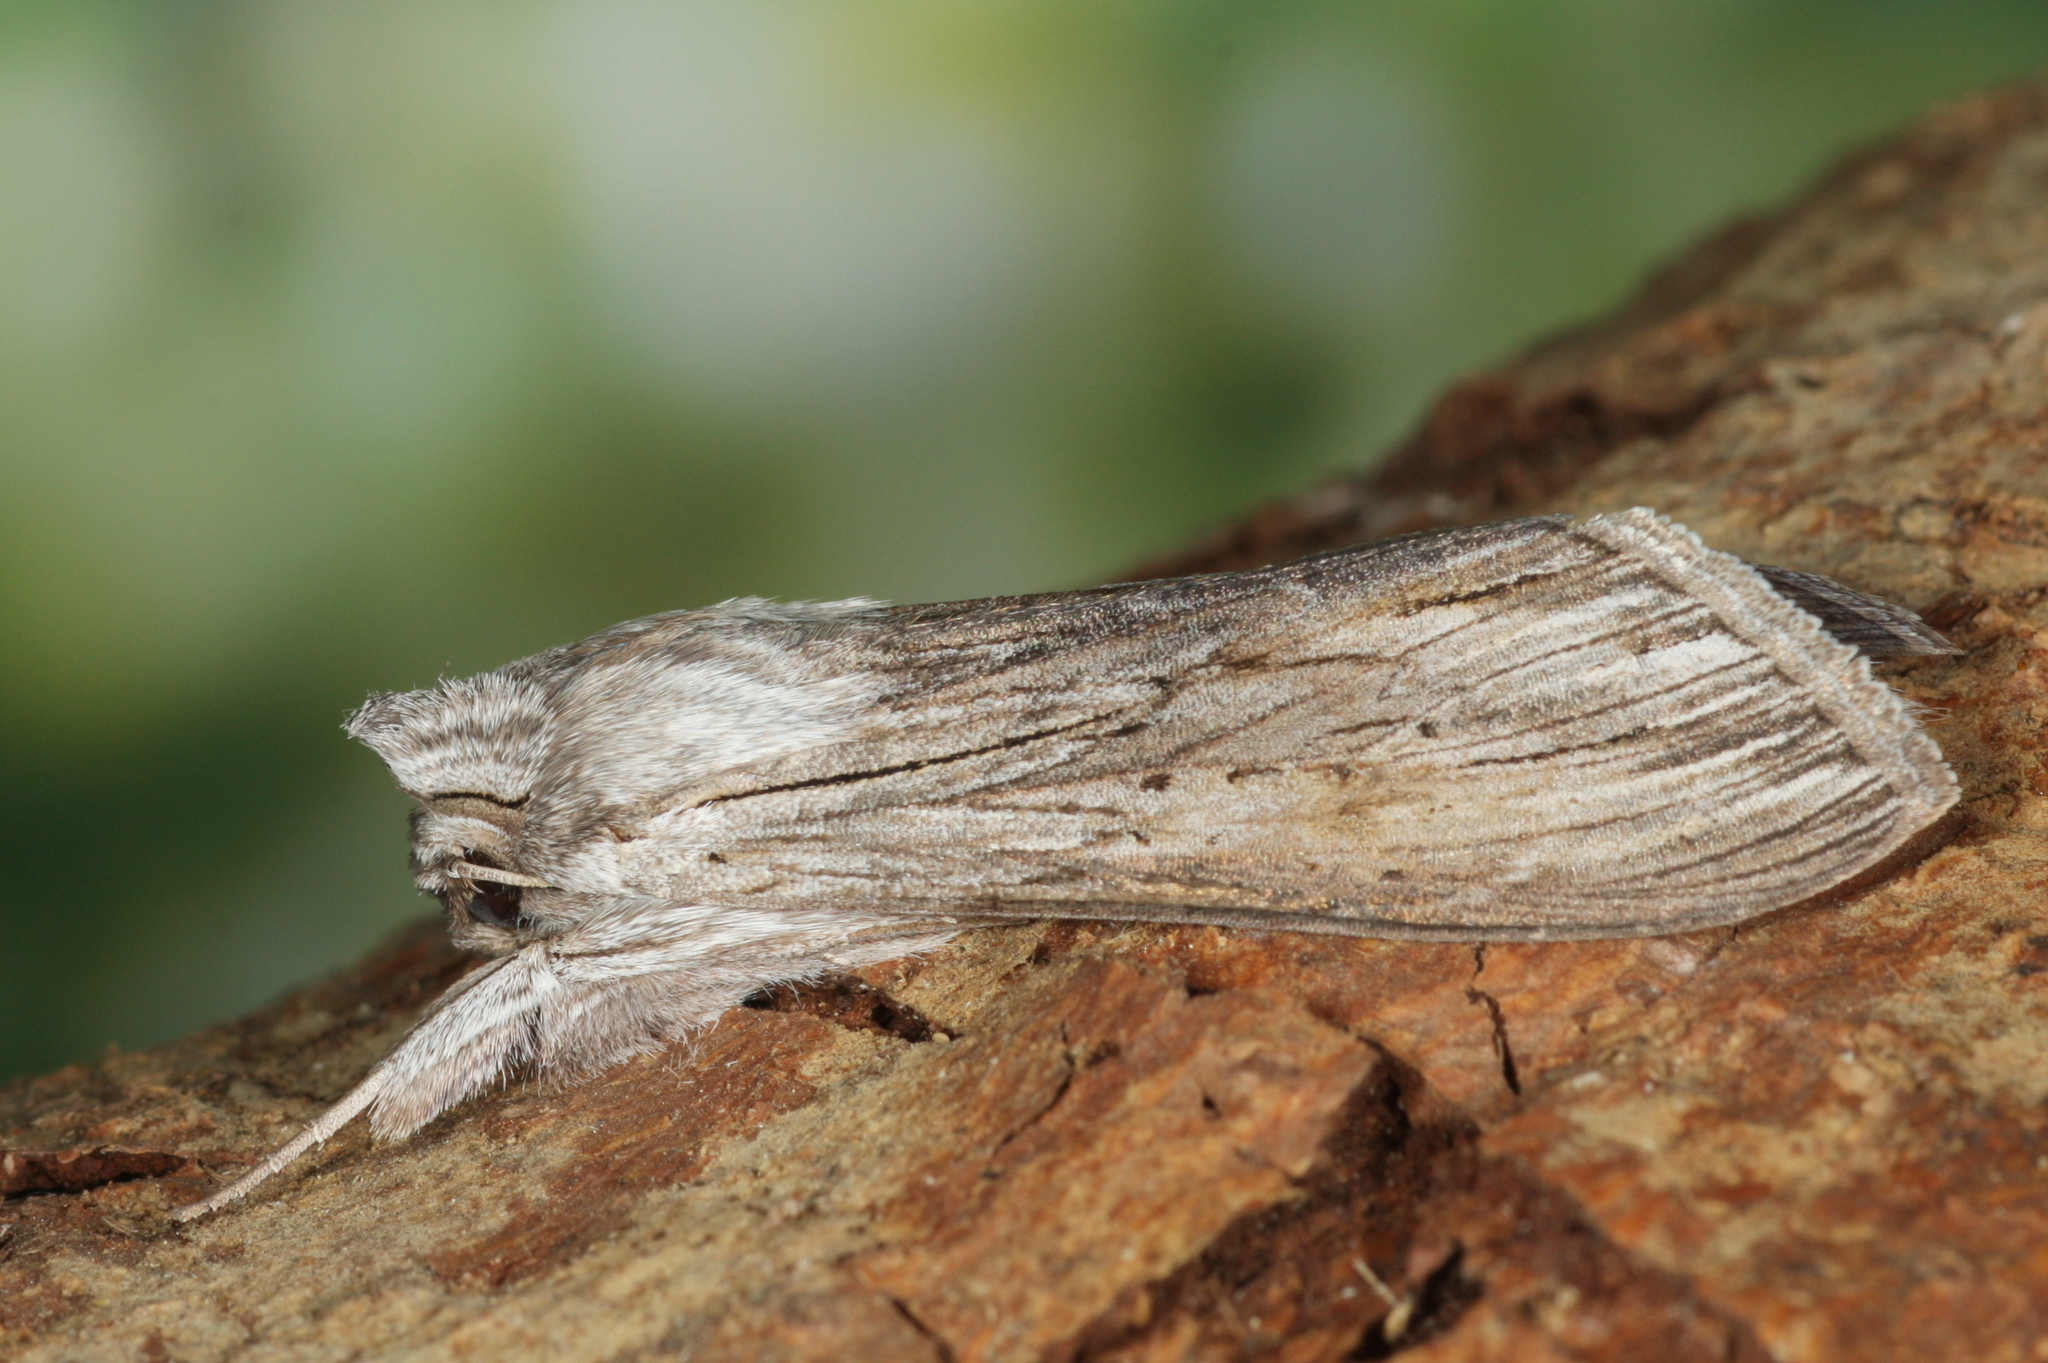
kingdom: Animalia
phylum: Arthropoda
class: Insecta
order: Lepidoptera
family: Noctuidae
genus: Cucullia
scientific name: Cucullia umbratica
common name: Shark
